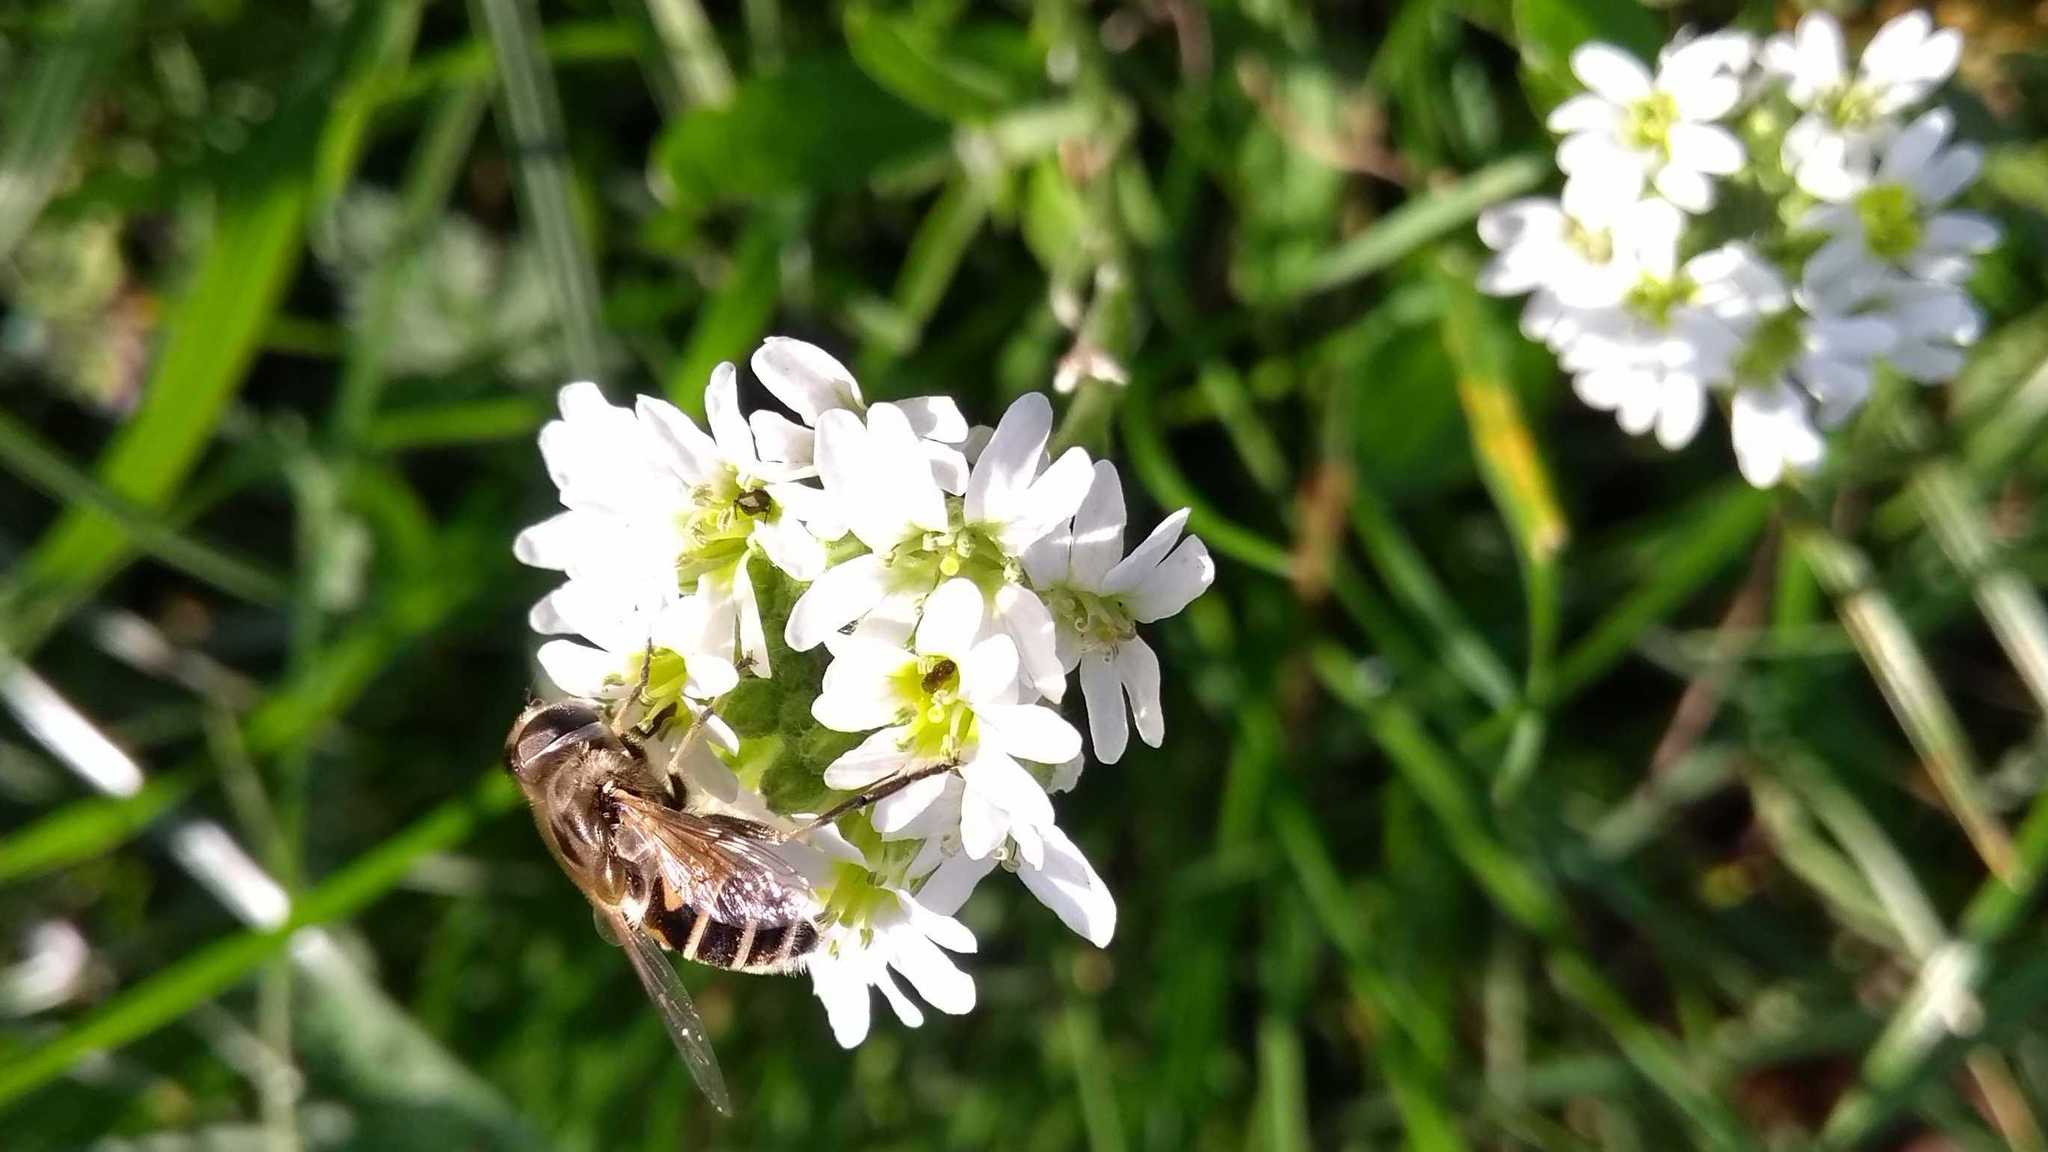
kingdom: Animalia
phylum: Arthropoda
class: Insecta
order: Diptera
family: Syrphidae
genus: Eristalis
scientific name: Eristalis arbustorum
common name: Hover fly
